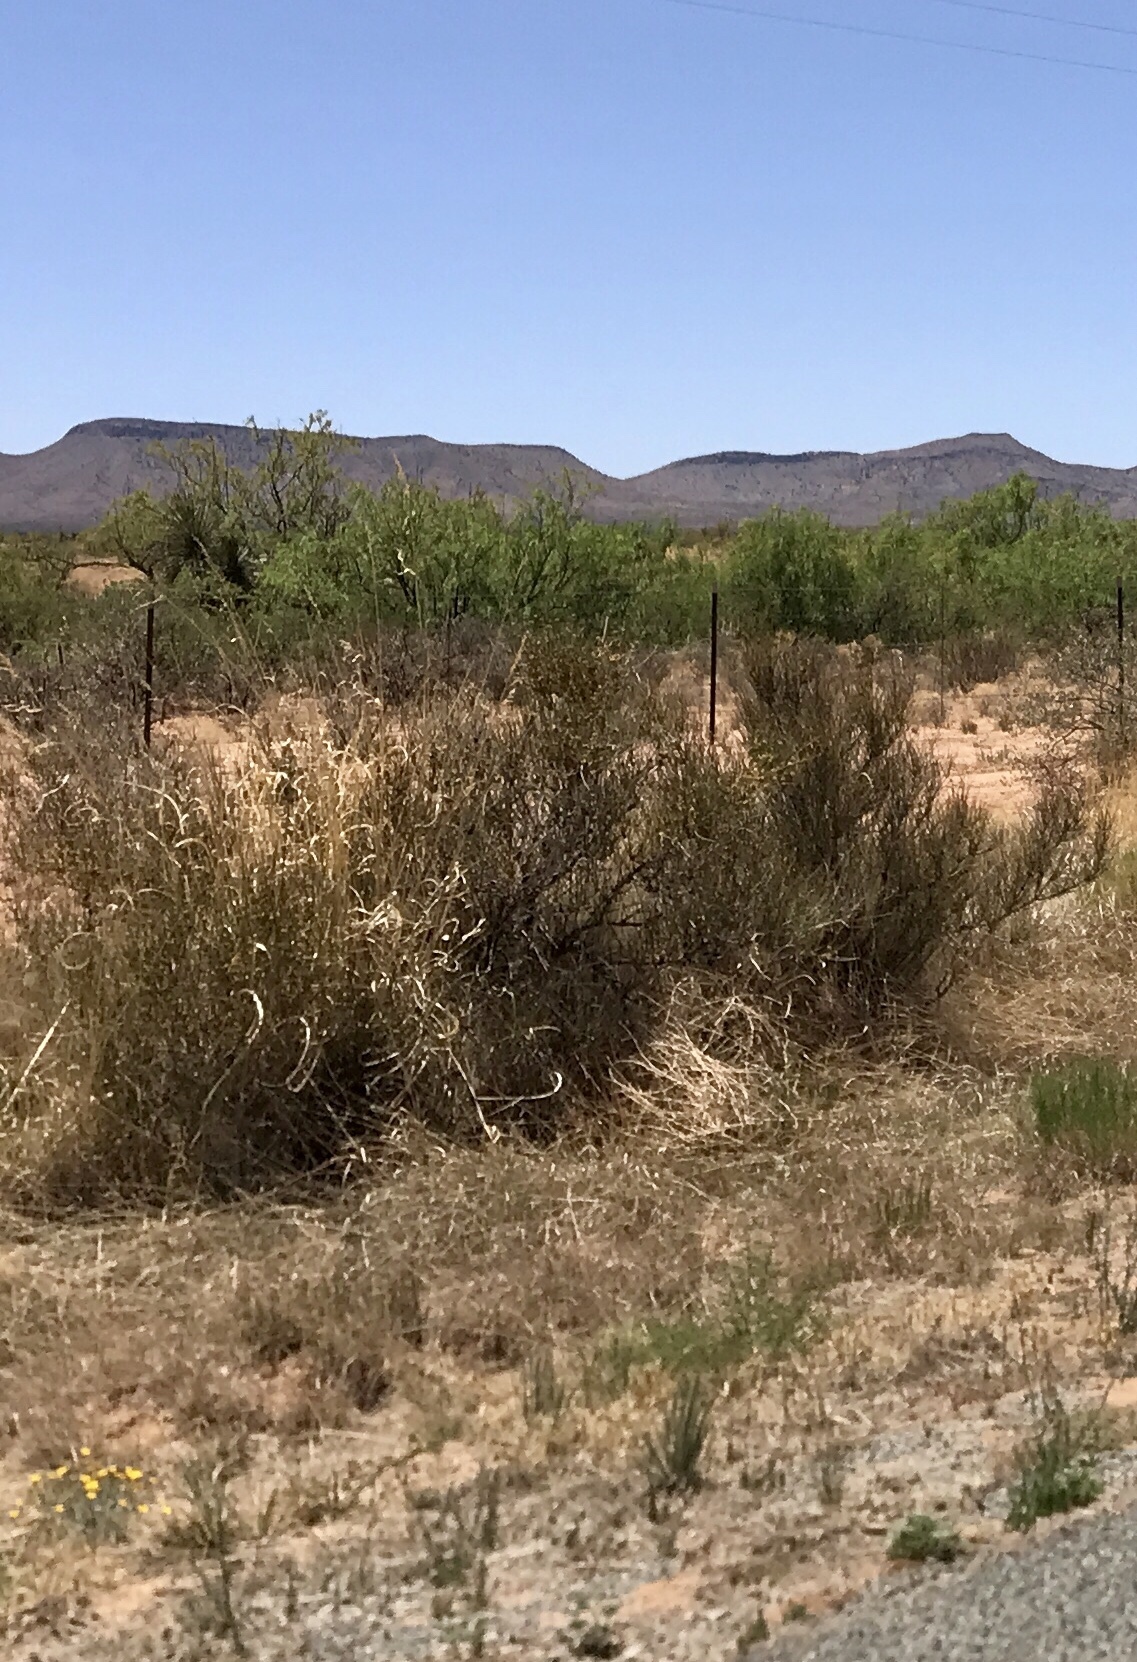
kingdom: Plantae
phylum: Tracheophyta
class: Gnetopsida
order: Ephedrales
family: Ephedraceae
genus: Ephedra
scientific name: Ephedra trifurca
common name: Mexican-tea
